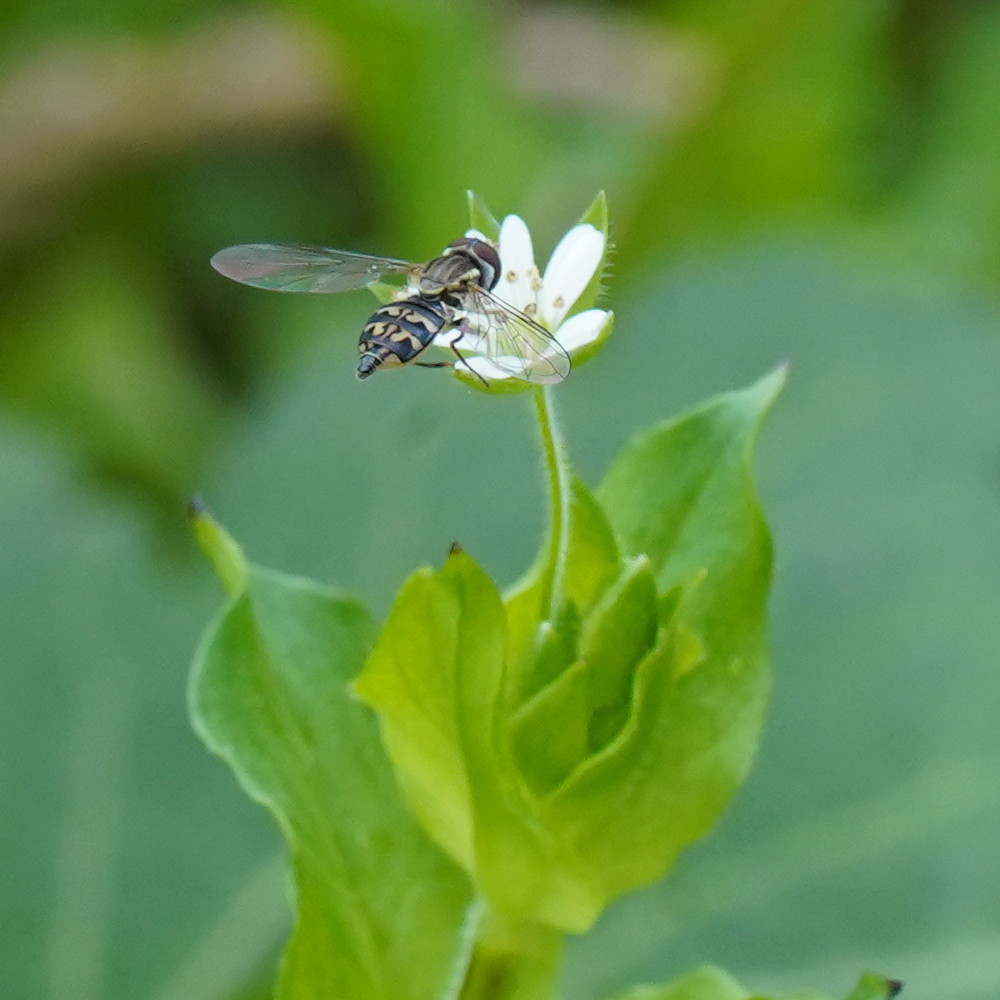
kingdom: Animalia
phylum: Arthropoda
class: Insecta
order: Diptera
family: Syrphidae
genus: Toxomerus
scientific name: Toxomerus geminatus
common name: Eastern calligrapher
